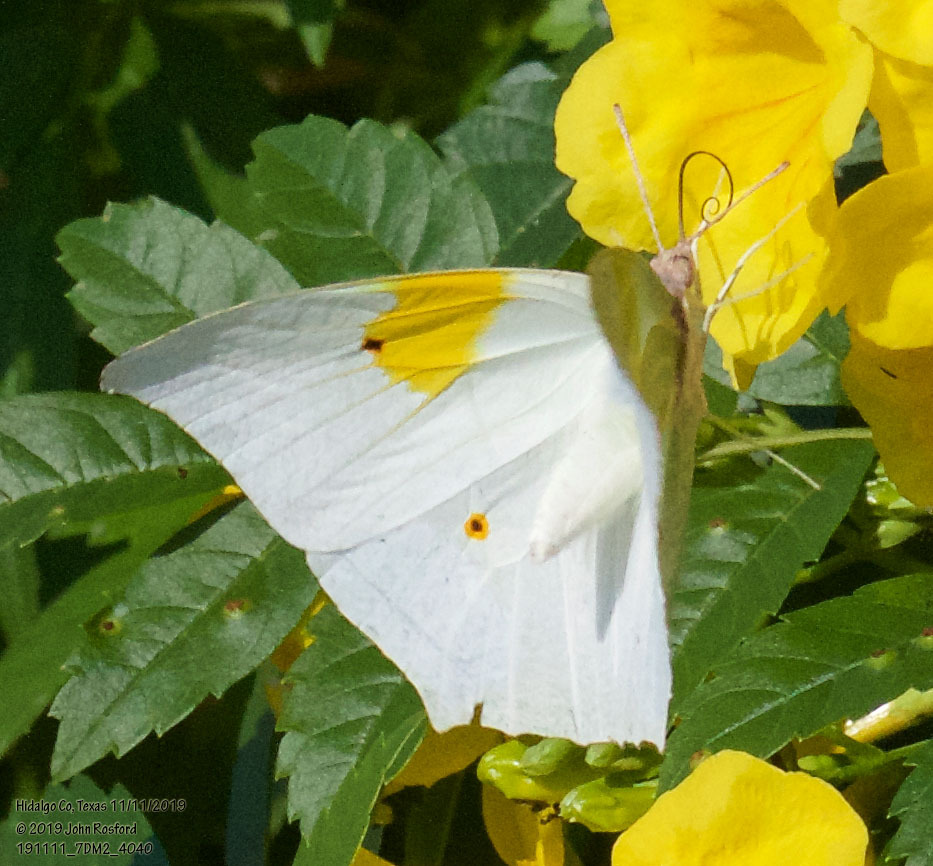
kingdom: Animalia
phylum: Arthropoda
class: Insecta
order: Lepidoptera
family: Pieridae
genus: Anteos
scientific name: Anteos clorinde
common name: White angled sulphur
